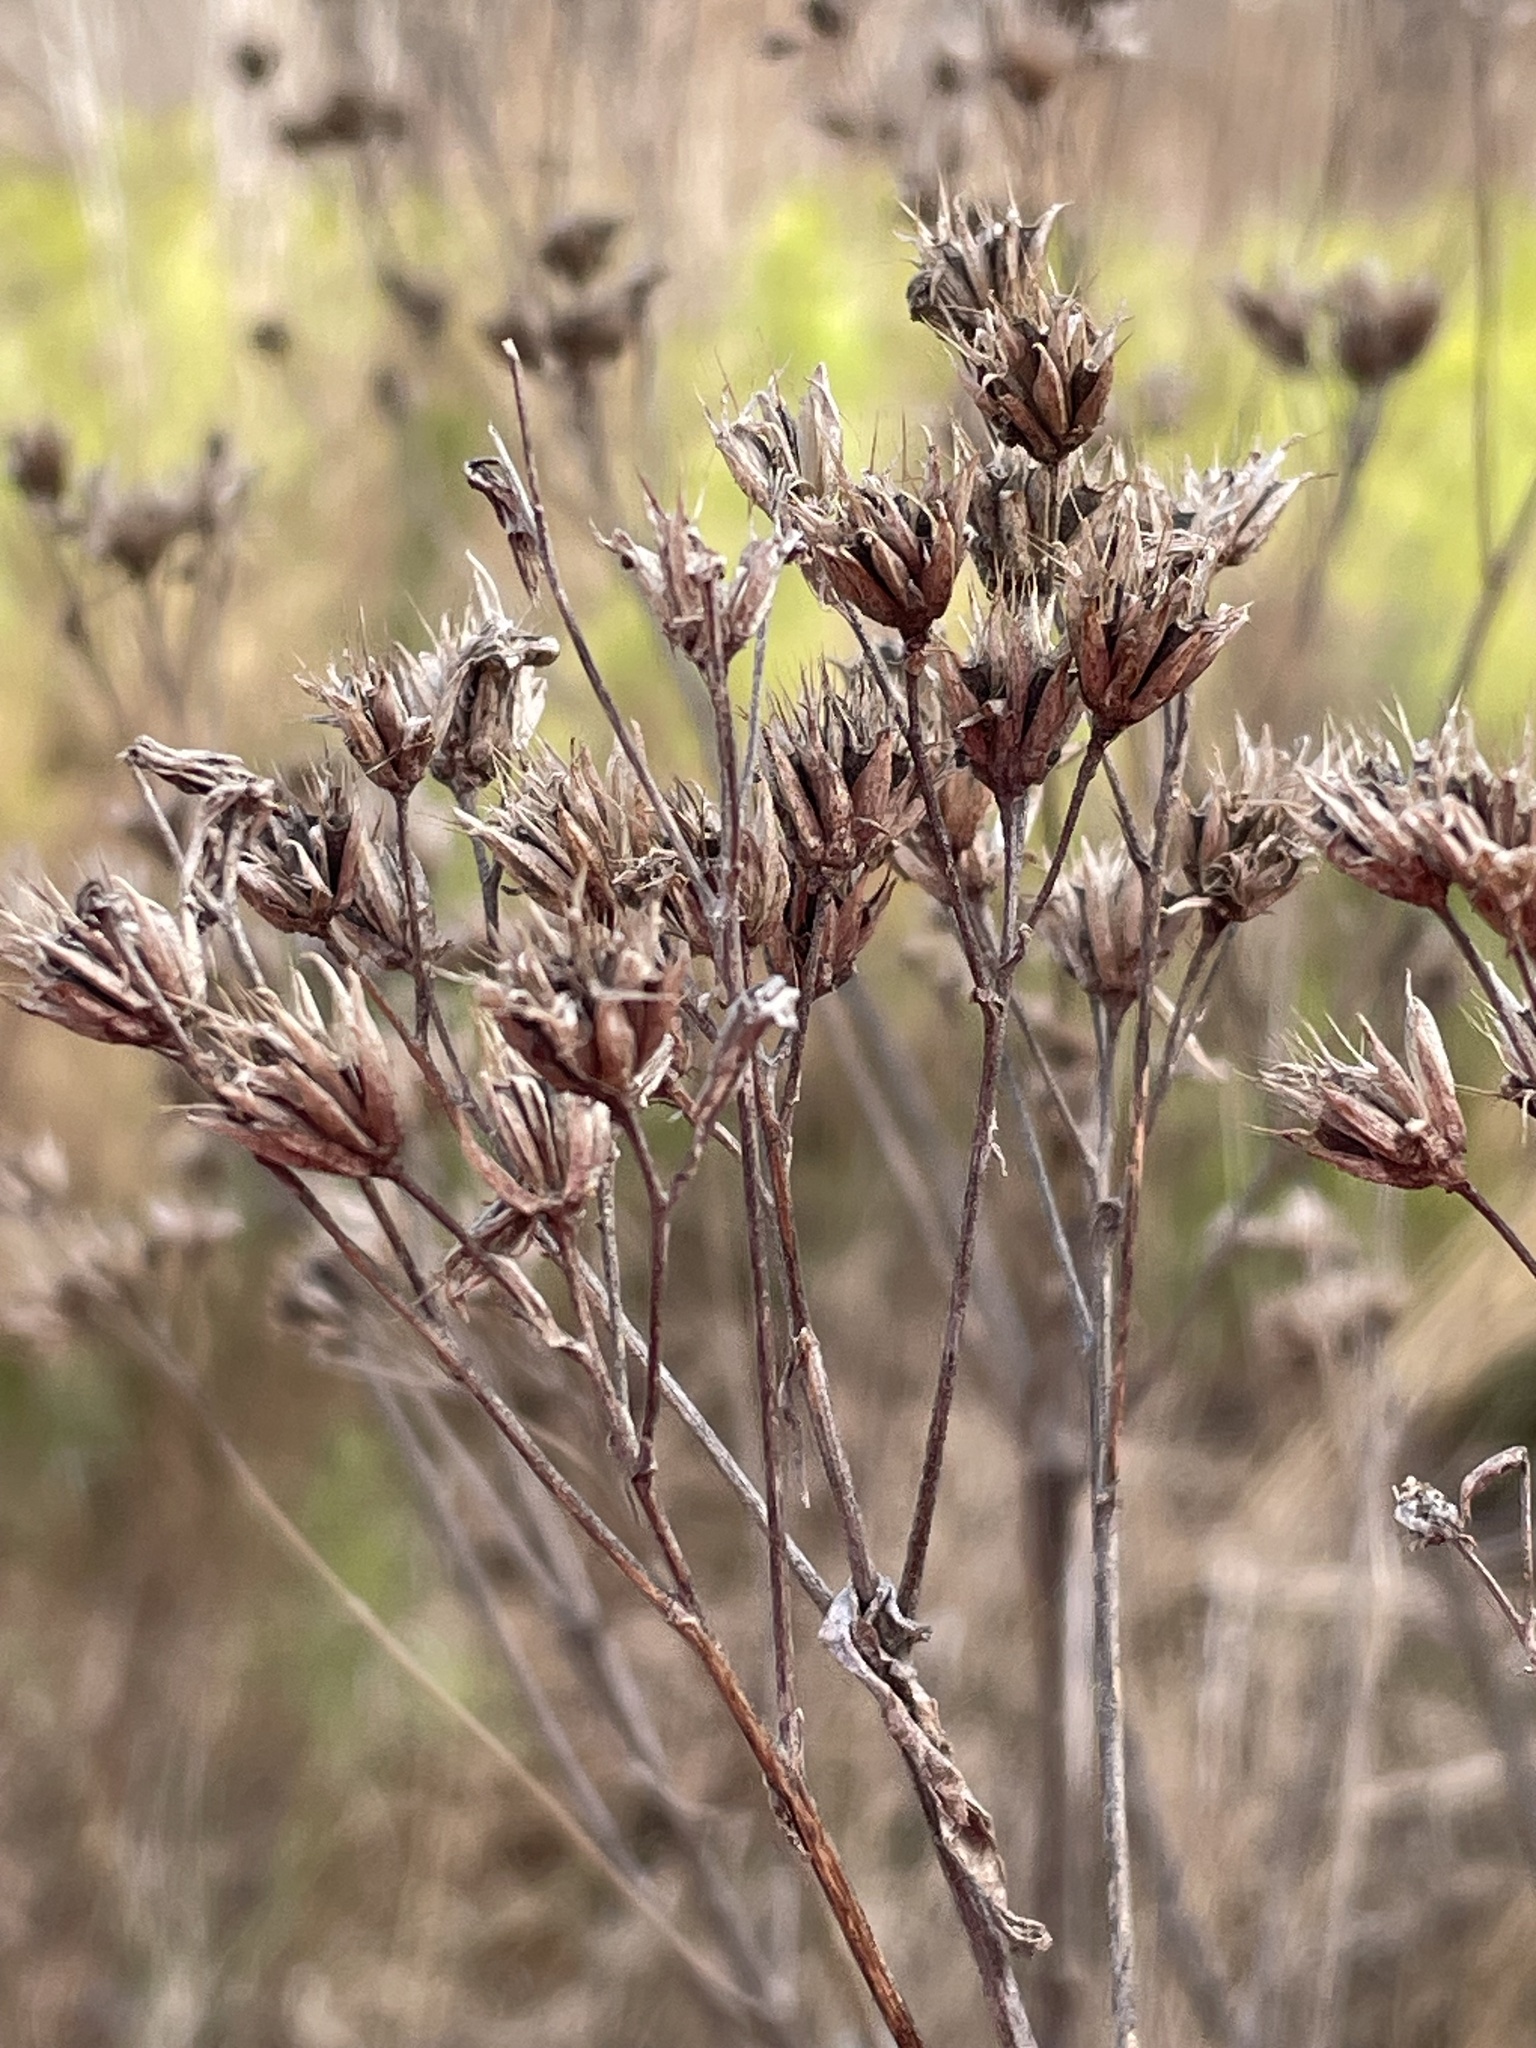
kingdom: Plantae
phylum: Tracheophyta
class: Magnoliopsida
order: Asterales
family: Asteraceae
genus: Verbesina
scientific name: Verbesina occidentalis
